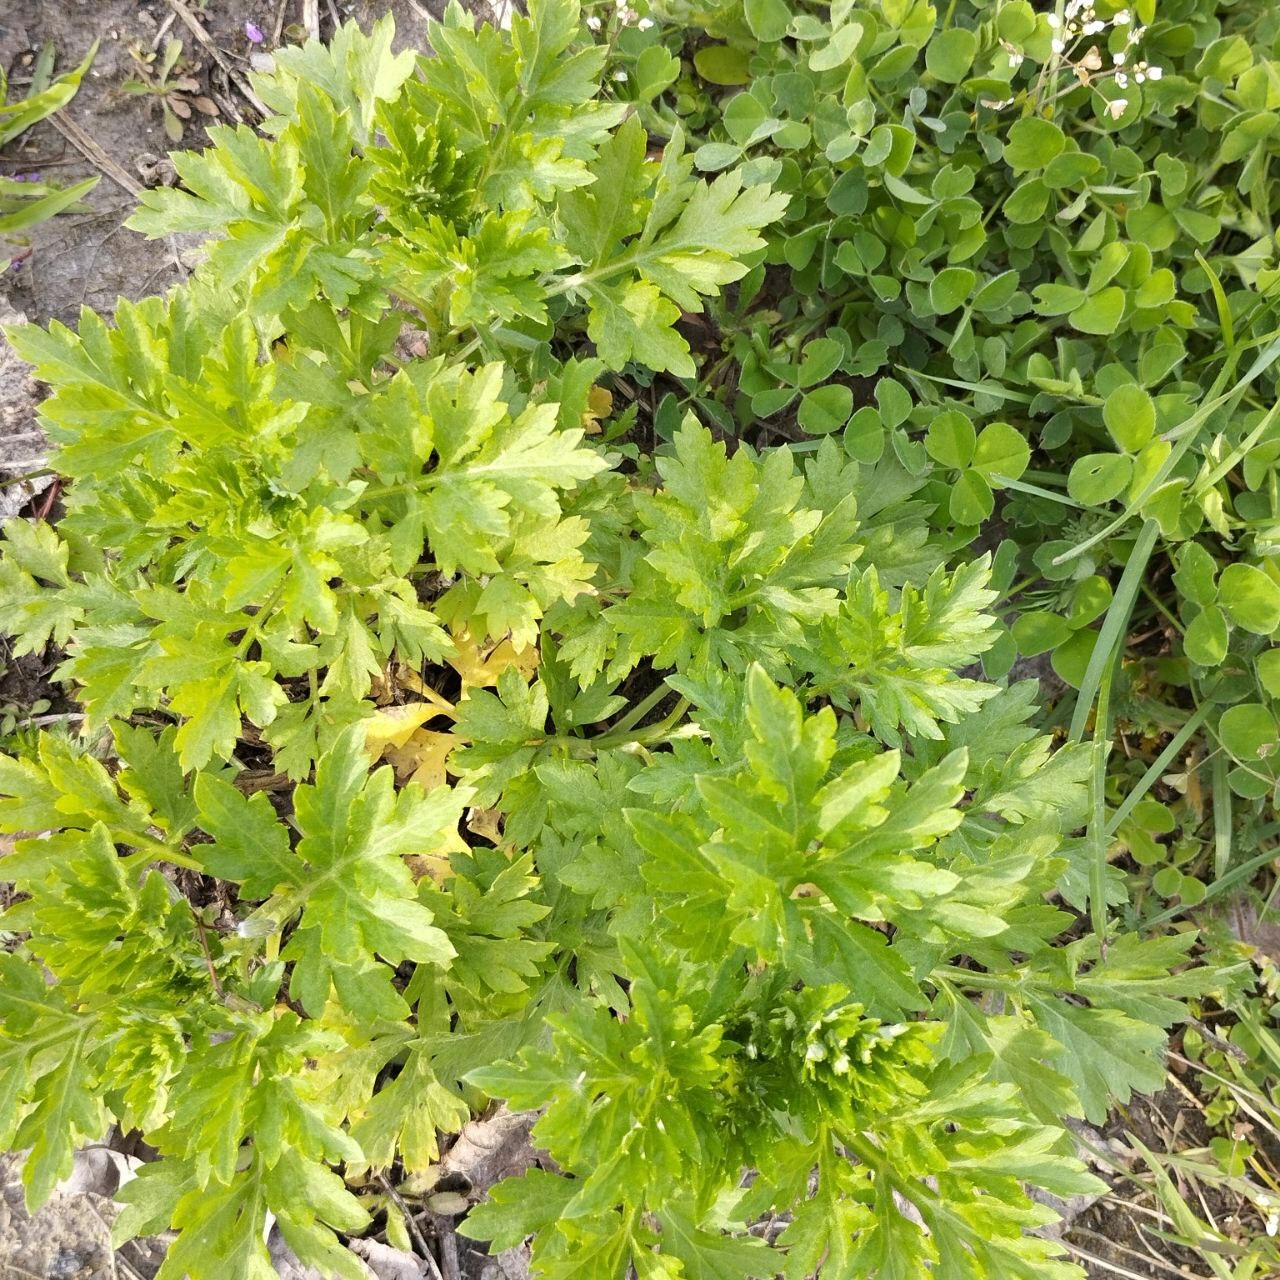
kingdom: Plantae
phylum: Tracheophyta
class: Magnoliopsida
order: Apiales
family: Apiaceae
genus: Petroselinum
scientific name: Petroselinum crispum
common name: Parsley
